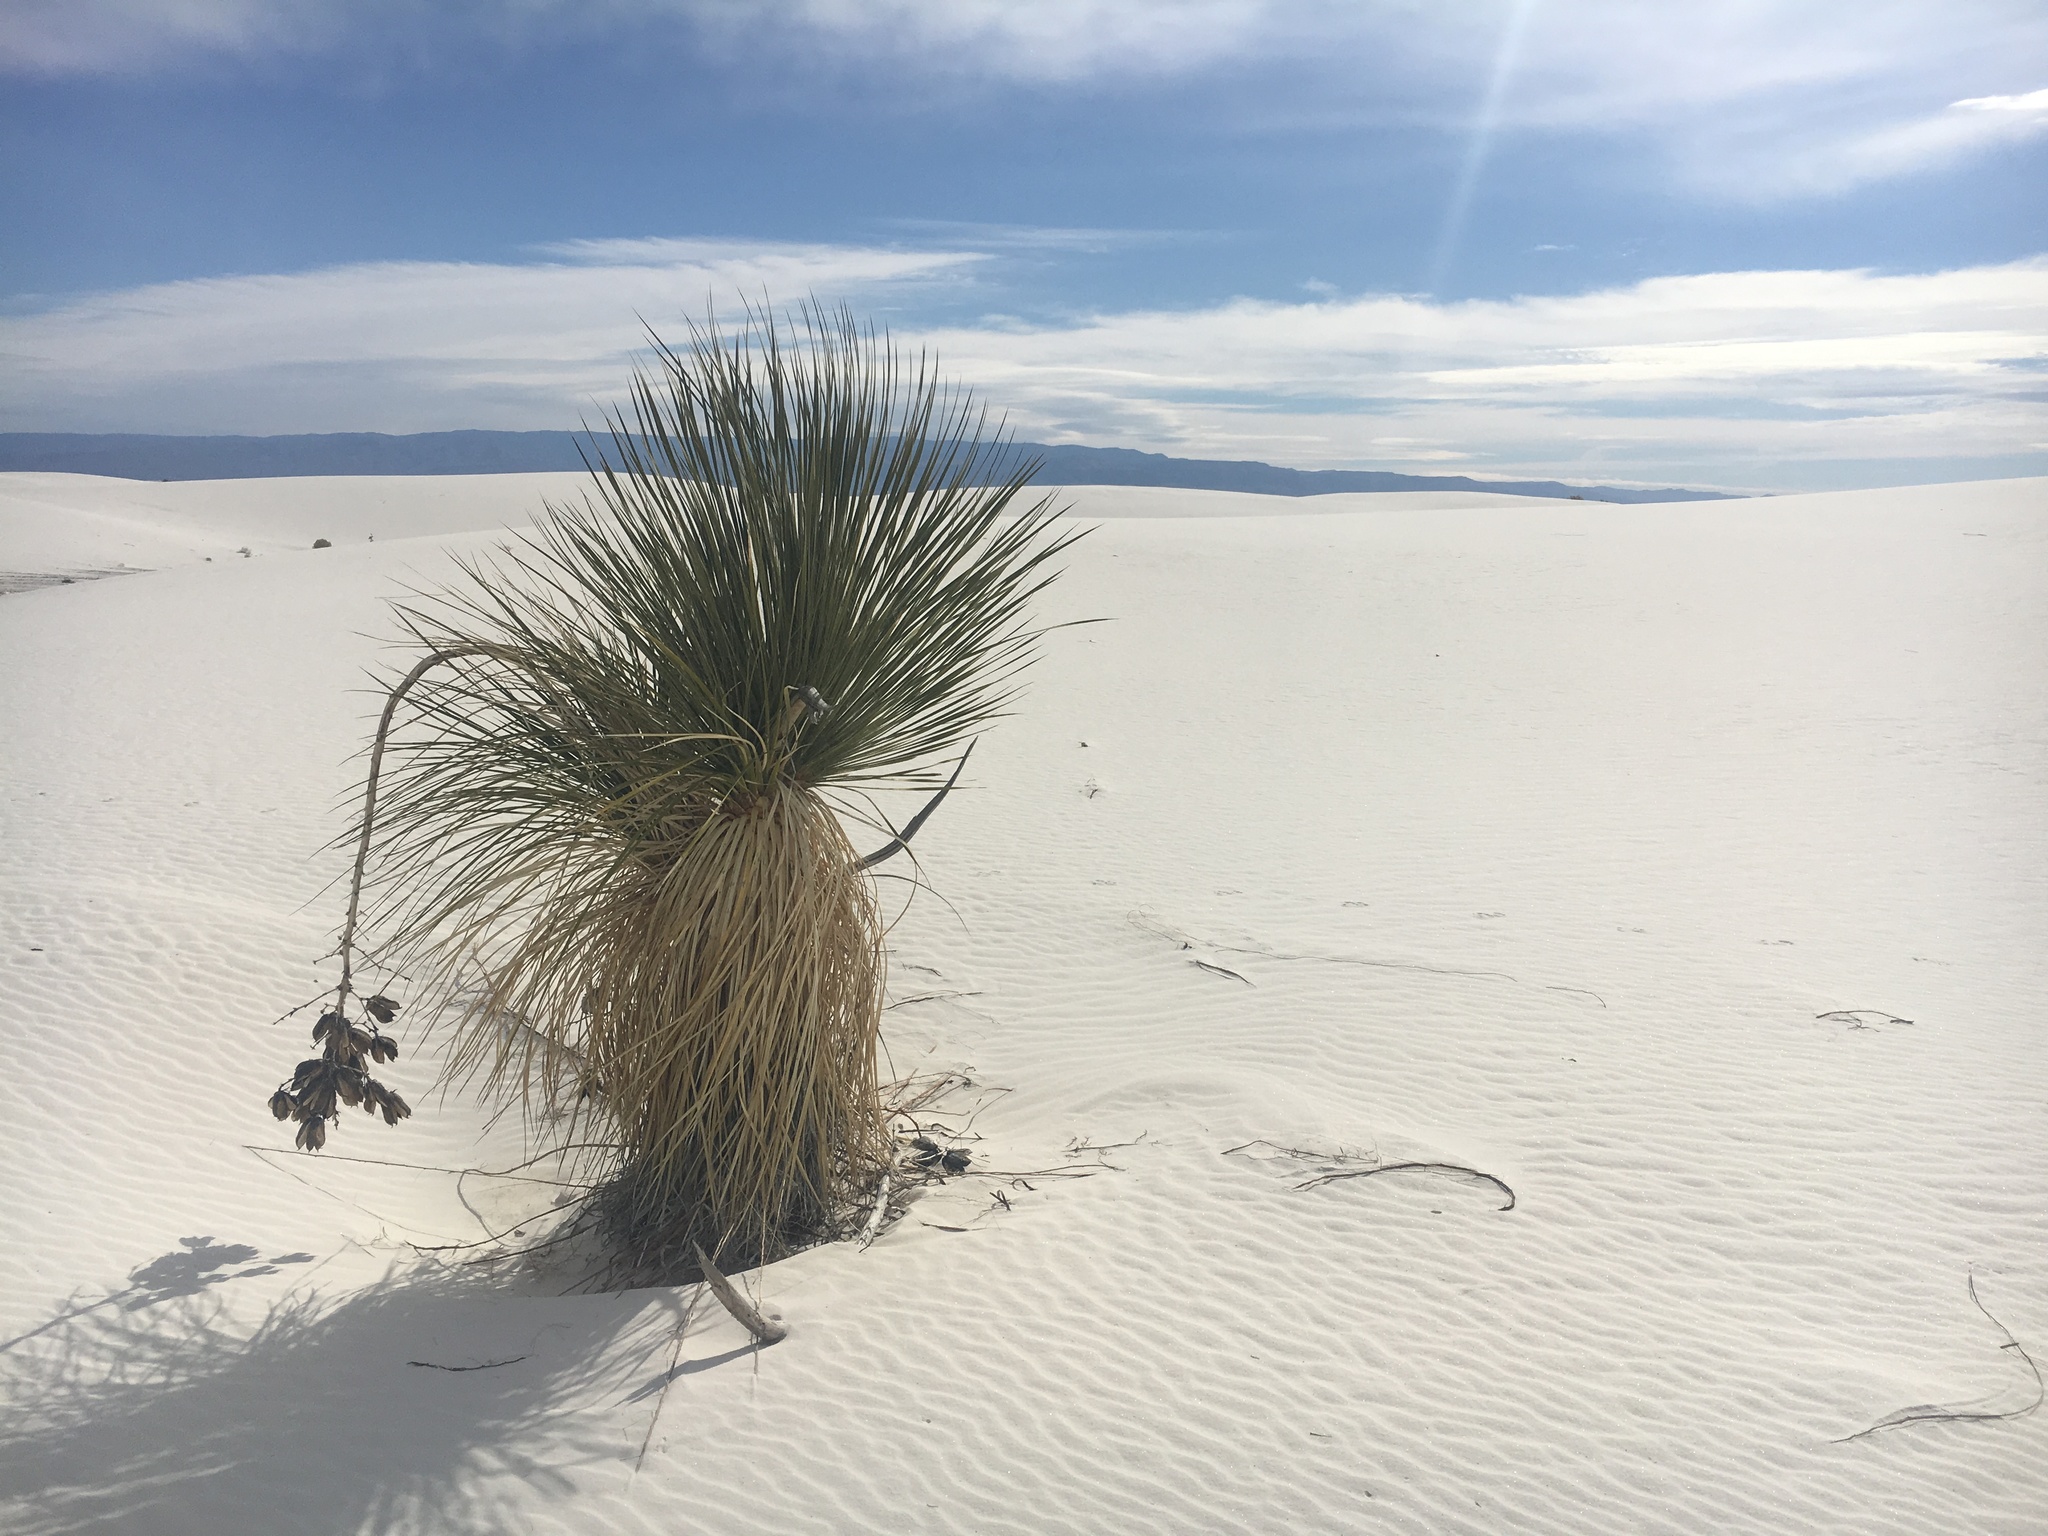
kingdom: Plantae
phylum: Tracheophyta
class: Liliopsida
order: Asparagales
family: Asparagaceae
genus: Yucca
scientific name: Yucca elata
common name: Palmella
